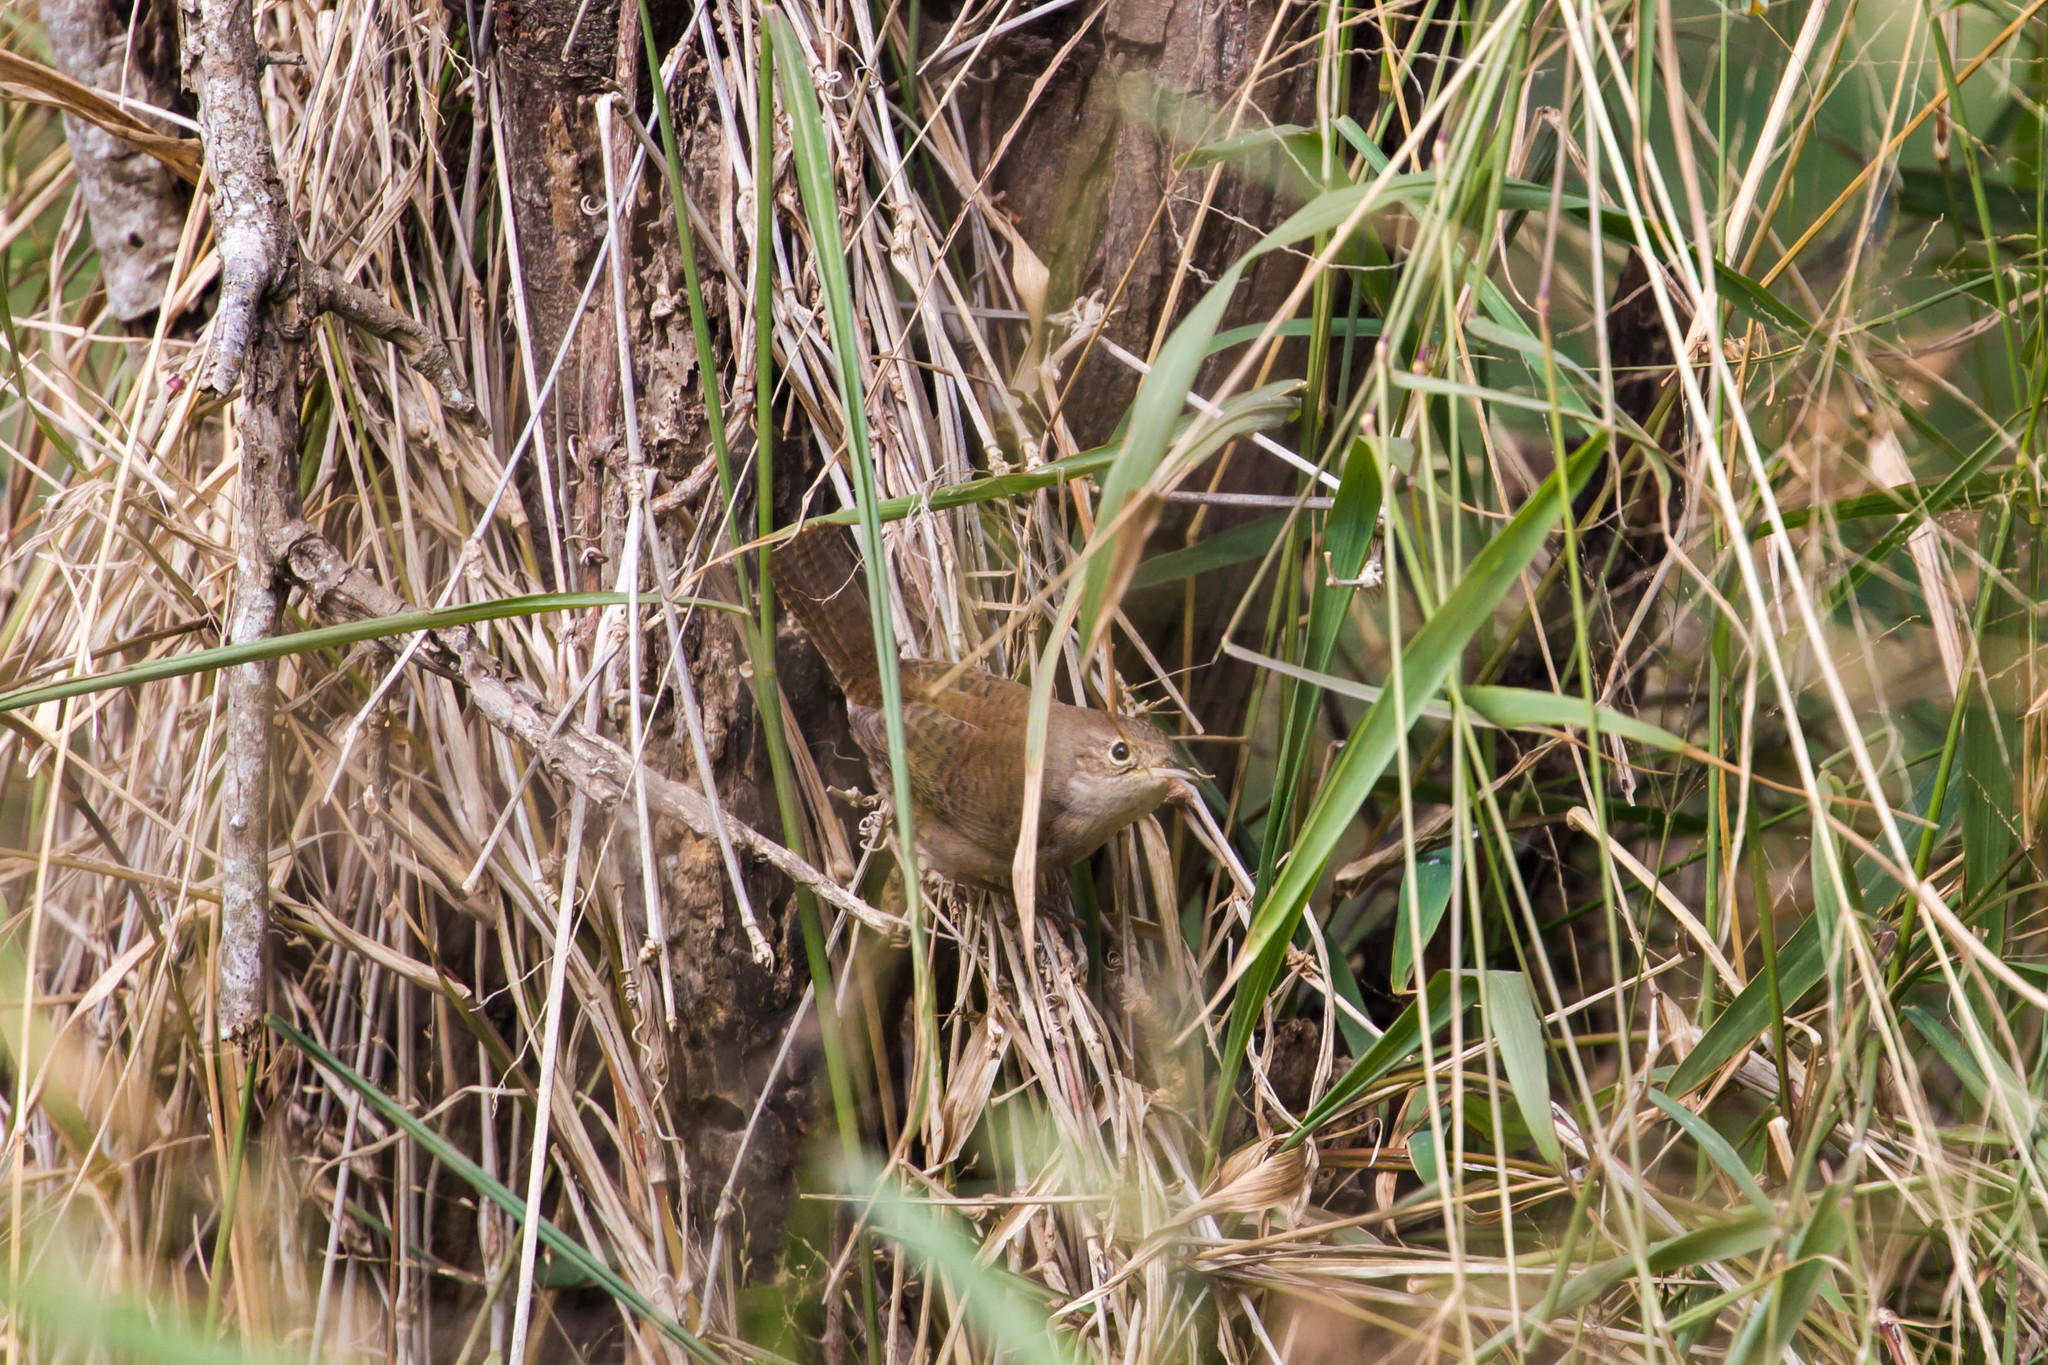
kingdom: Animalia
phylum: Chordata
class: Aves
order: Passeriformes
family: Troglodytidae
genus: Troglodytes
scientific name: Troglodytes aedon
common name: House wren
